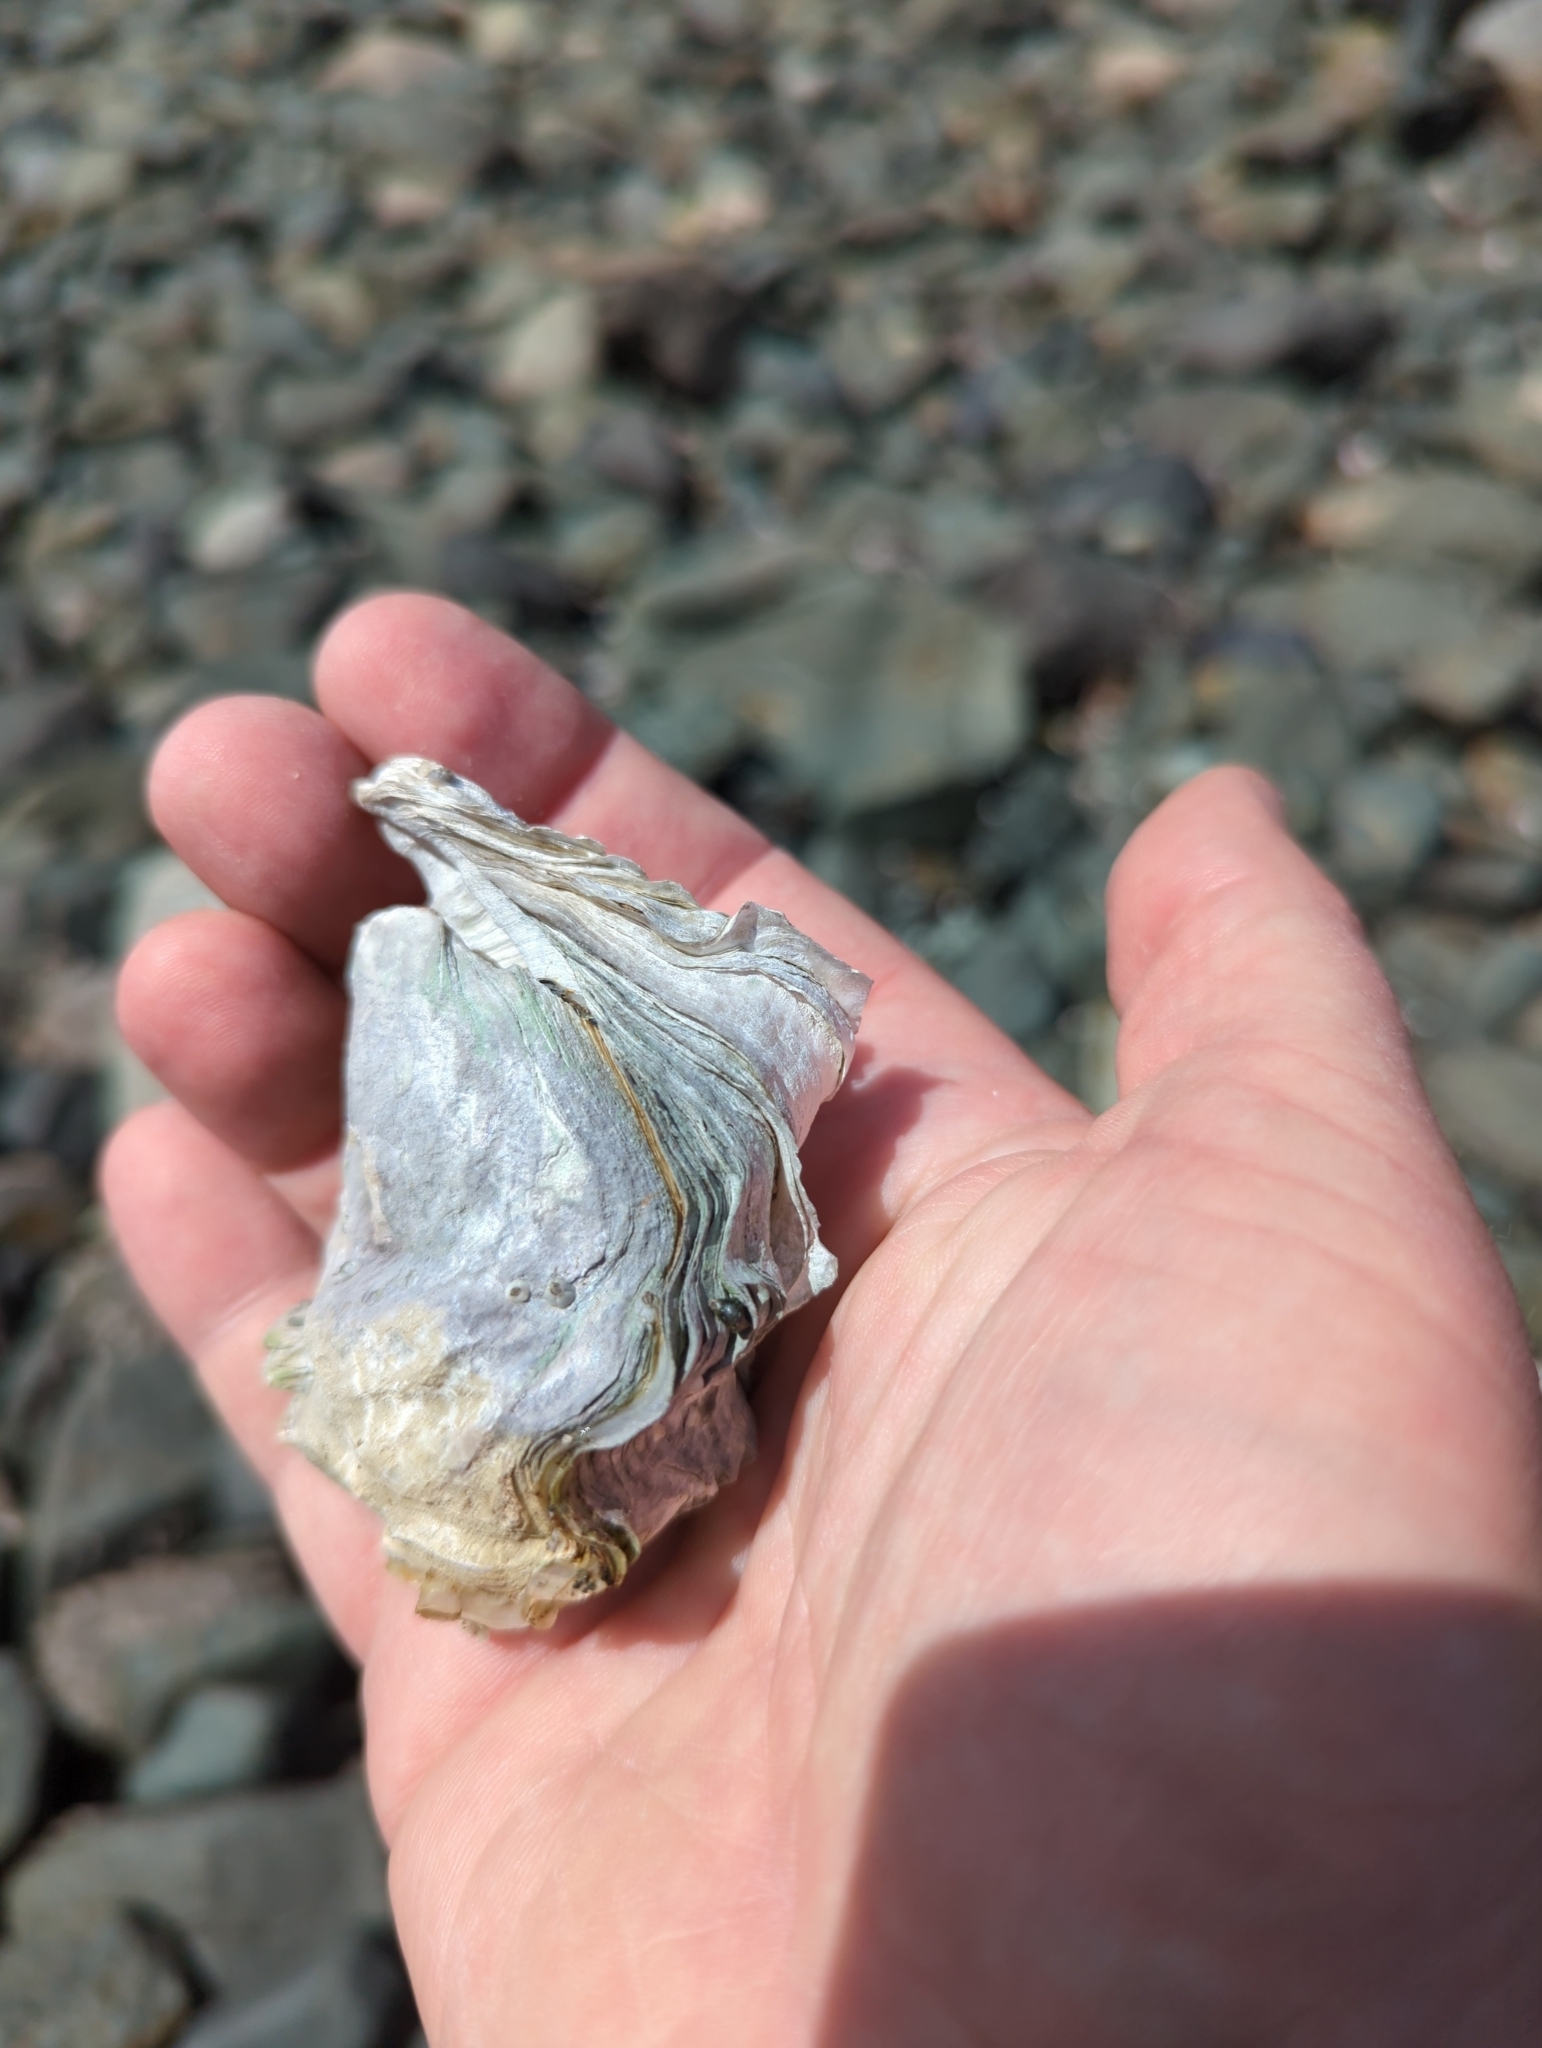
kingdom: Animalia
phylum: Mollusca
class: Bivalvia
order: Ostreida
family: Ostreidae
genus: Magallana
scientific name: Magallana gigas
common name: Pacific oyster
